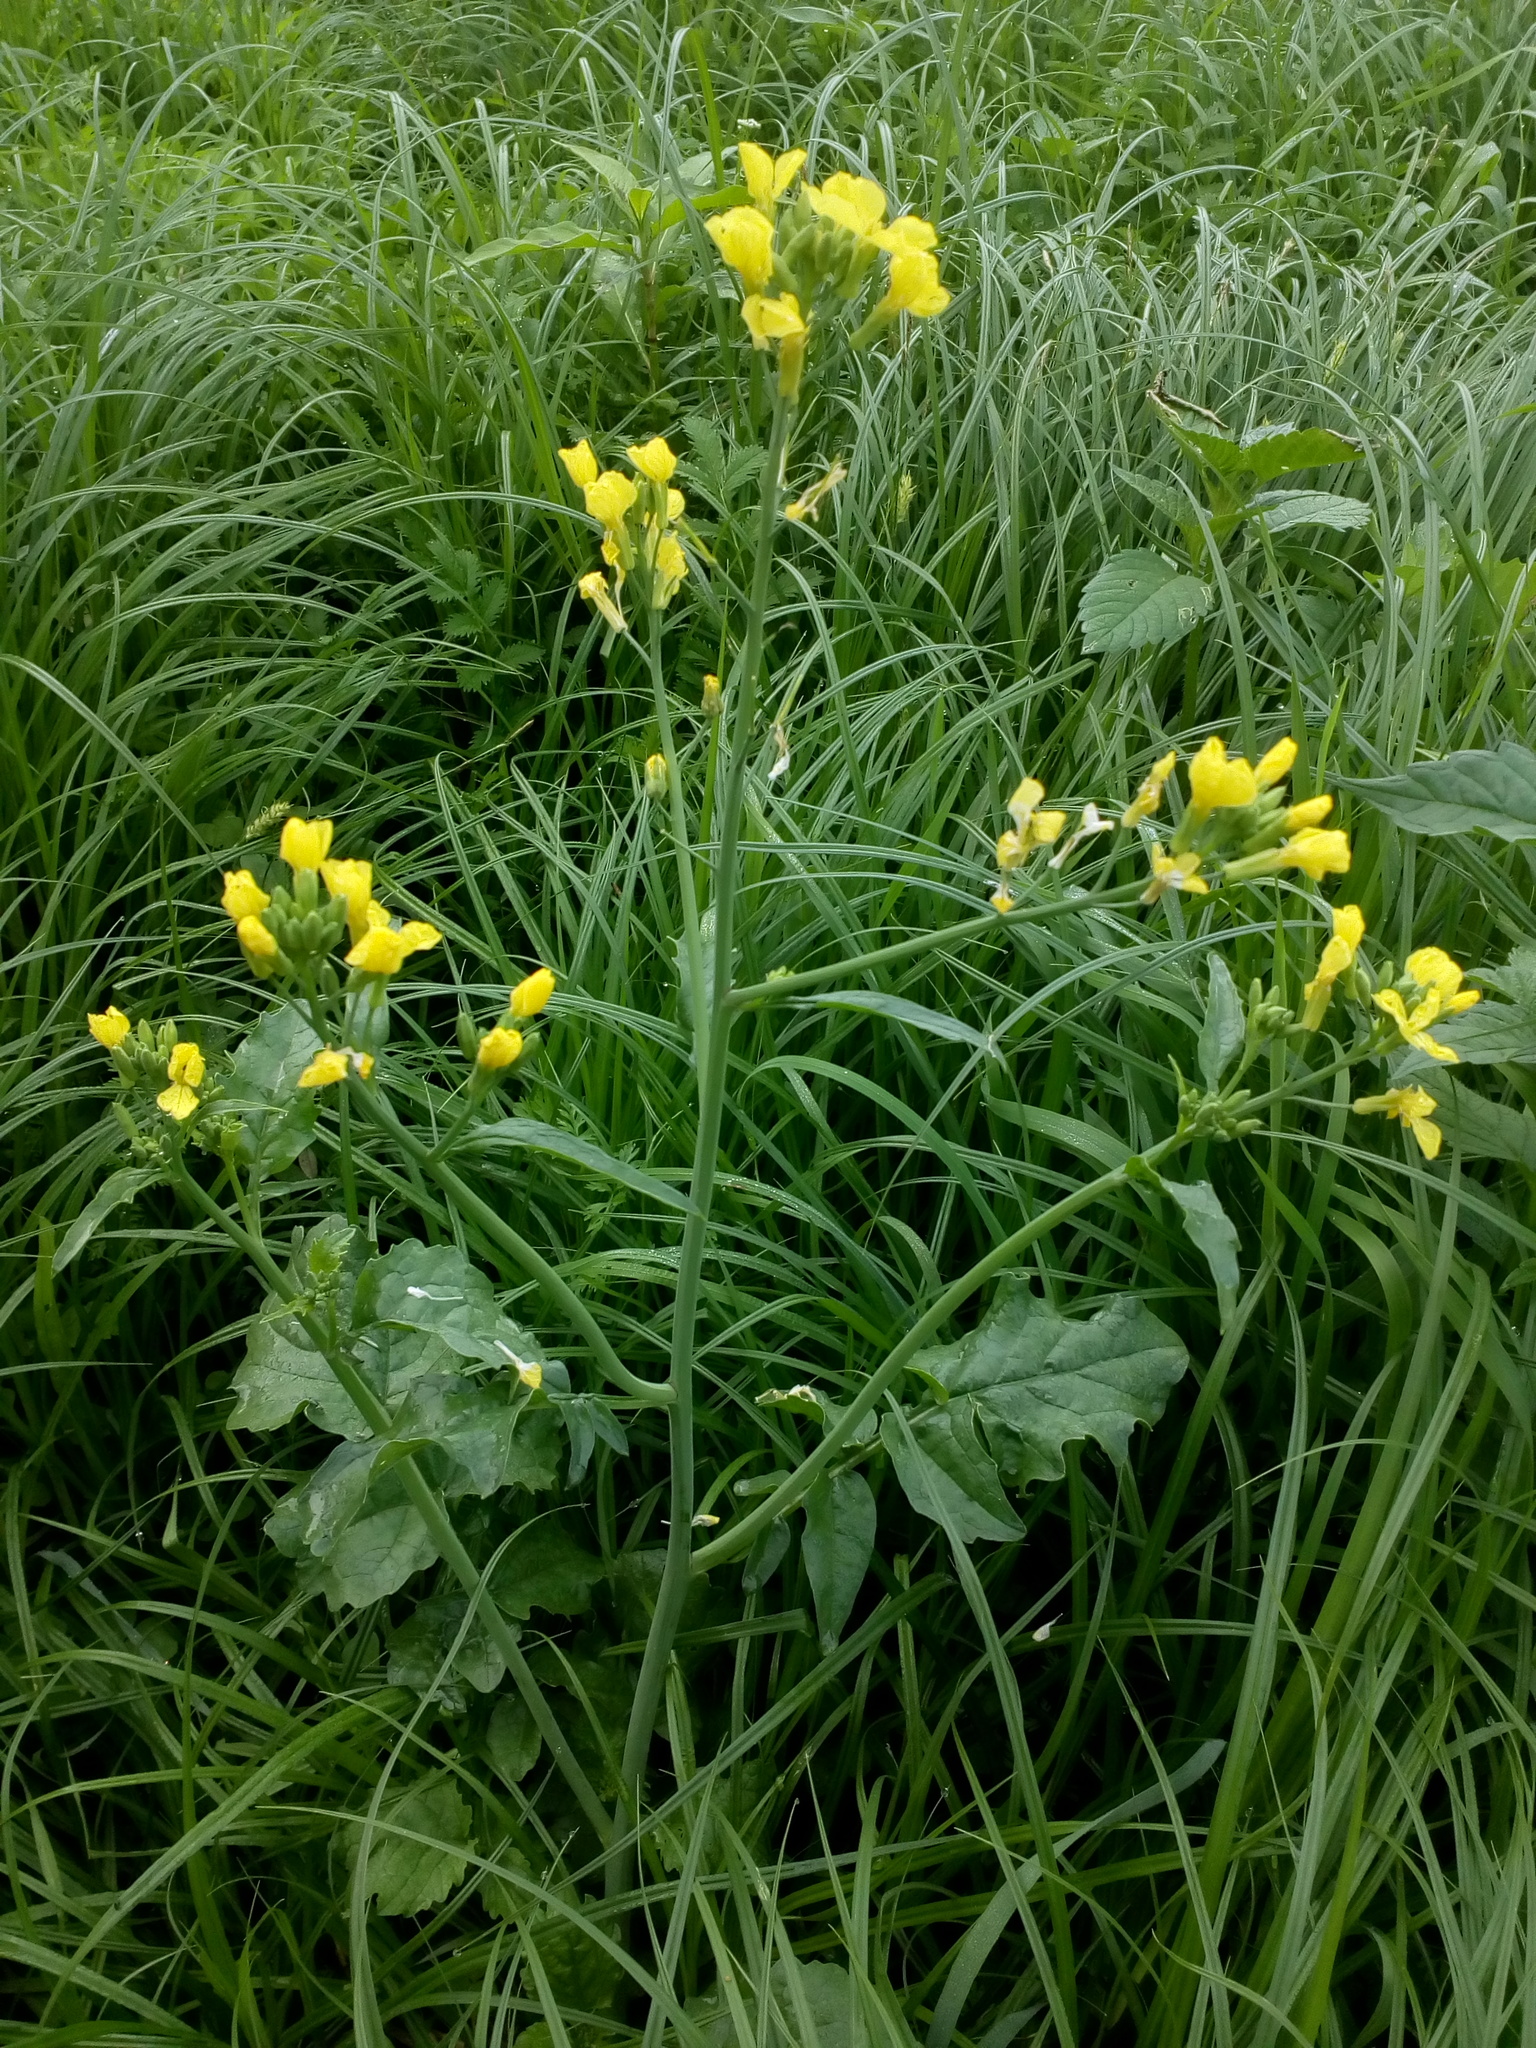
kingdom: Plantae
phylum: Tracheophyta
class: Magnoliopsida
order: Brassicales
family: Brassicaceae
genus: Raphanus
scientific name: Raphanus raphanistrum
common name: Wild radish
